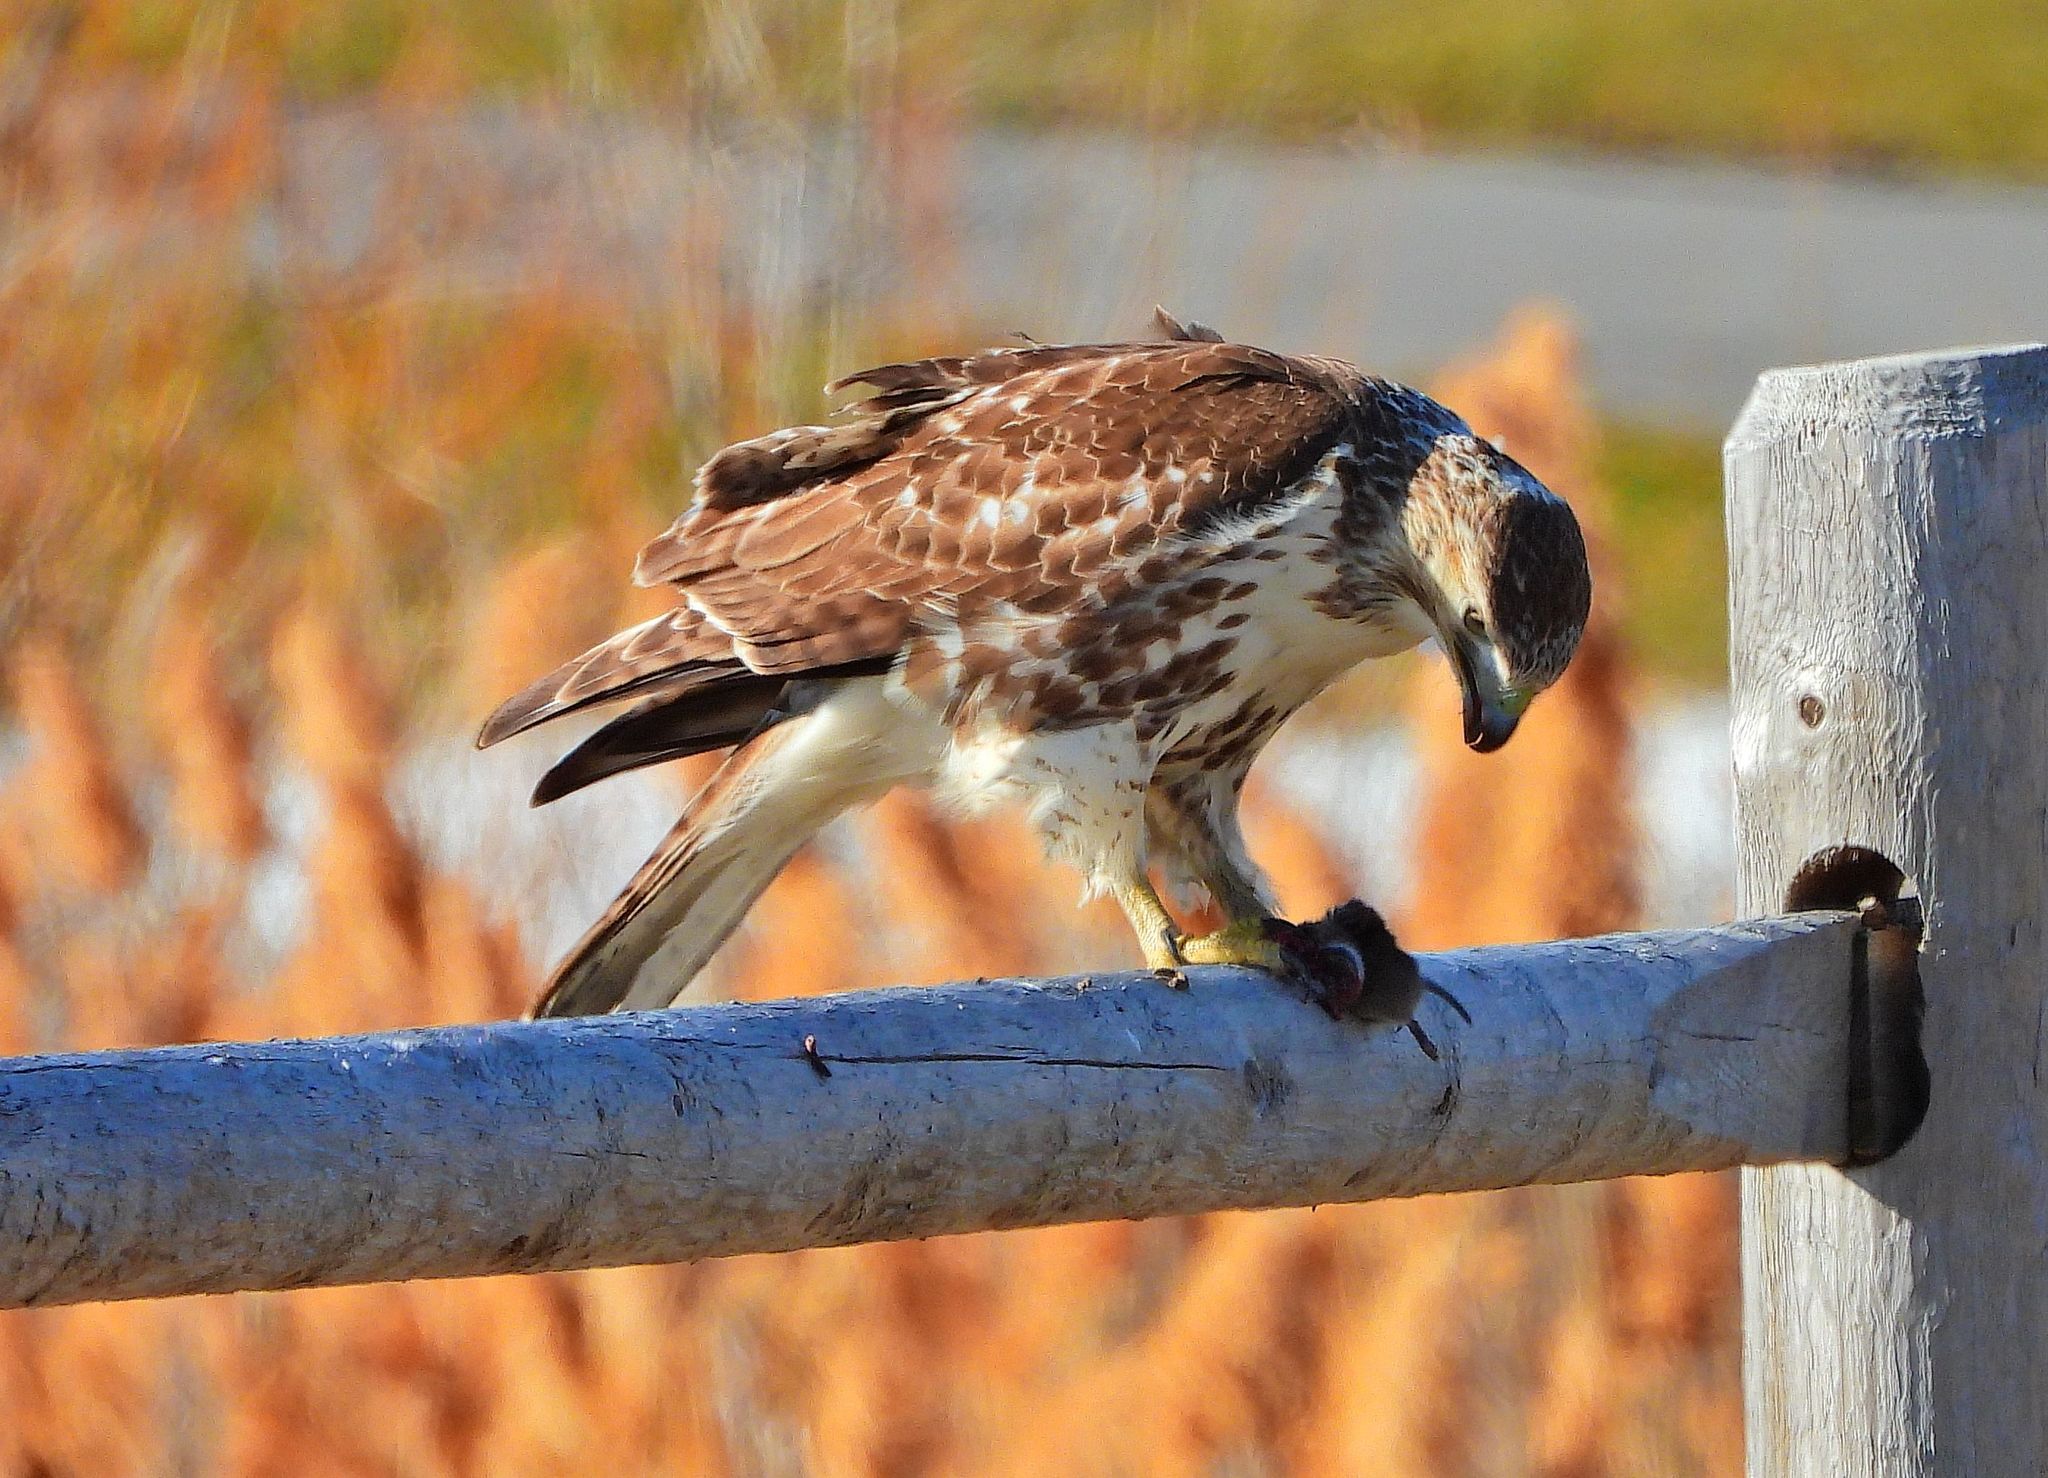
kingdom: Animalia
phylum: Chordata
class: Aves
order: Accipitriformes
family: Accipitridae
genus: Buteo
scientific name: Buteo jamaicensis
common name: Red-tailed hawk
